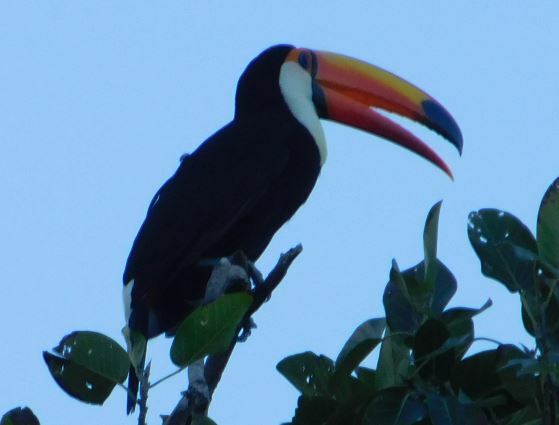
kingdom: Animalia
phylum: Chordata
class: Aves
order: Piciformes
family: Ramphastidae
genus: Ramphastos
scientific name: Ramphastos toco
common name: Toco toucan
